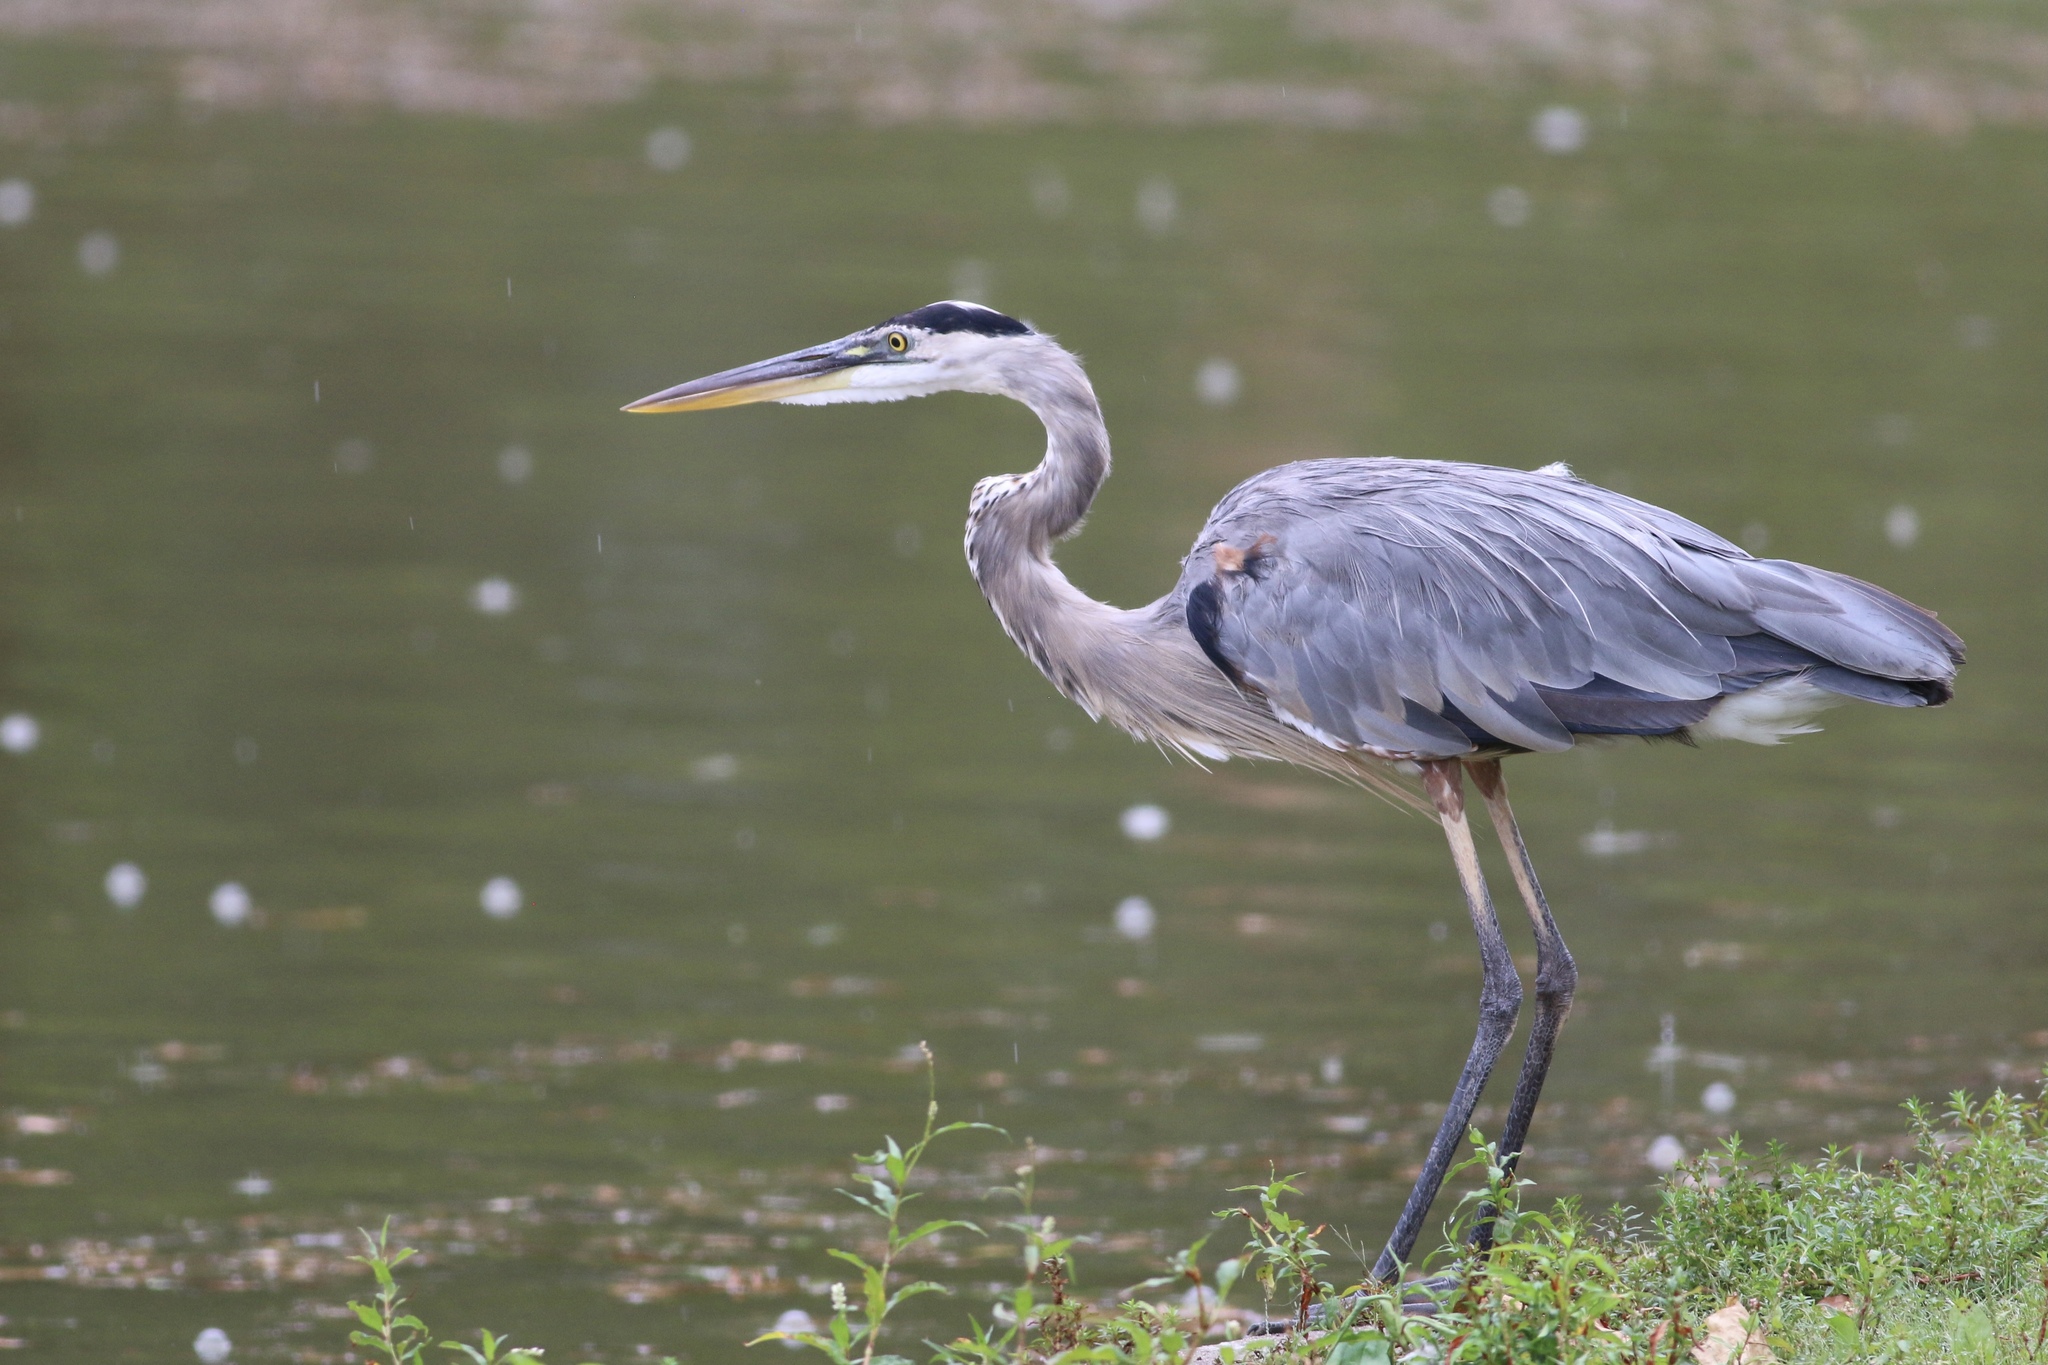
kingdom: Animalia
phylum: Chordata
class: Aves
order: Pelecaniformes
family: Ardeidae
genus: Ardea
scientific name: Ardea herodias
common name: Great blue heron
